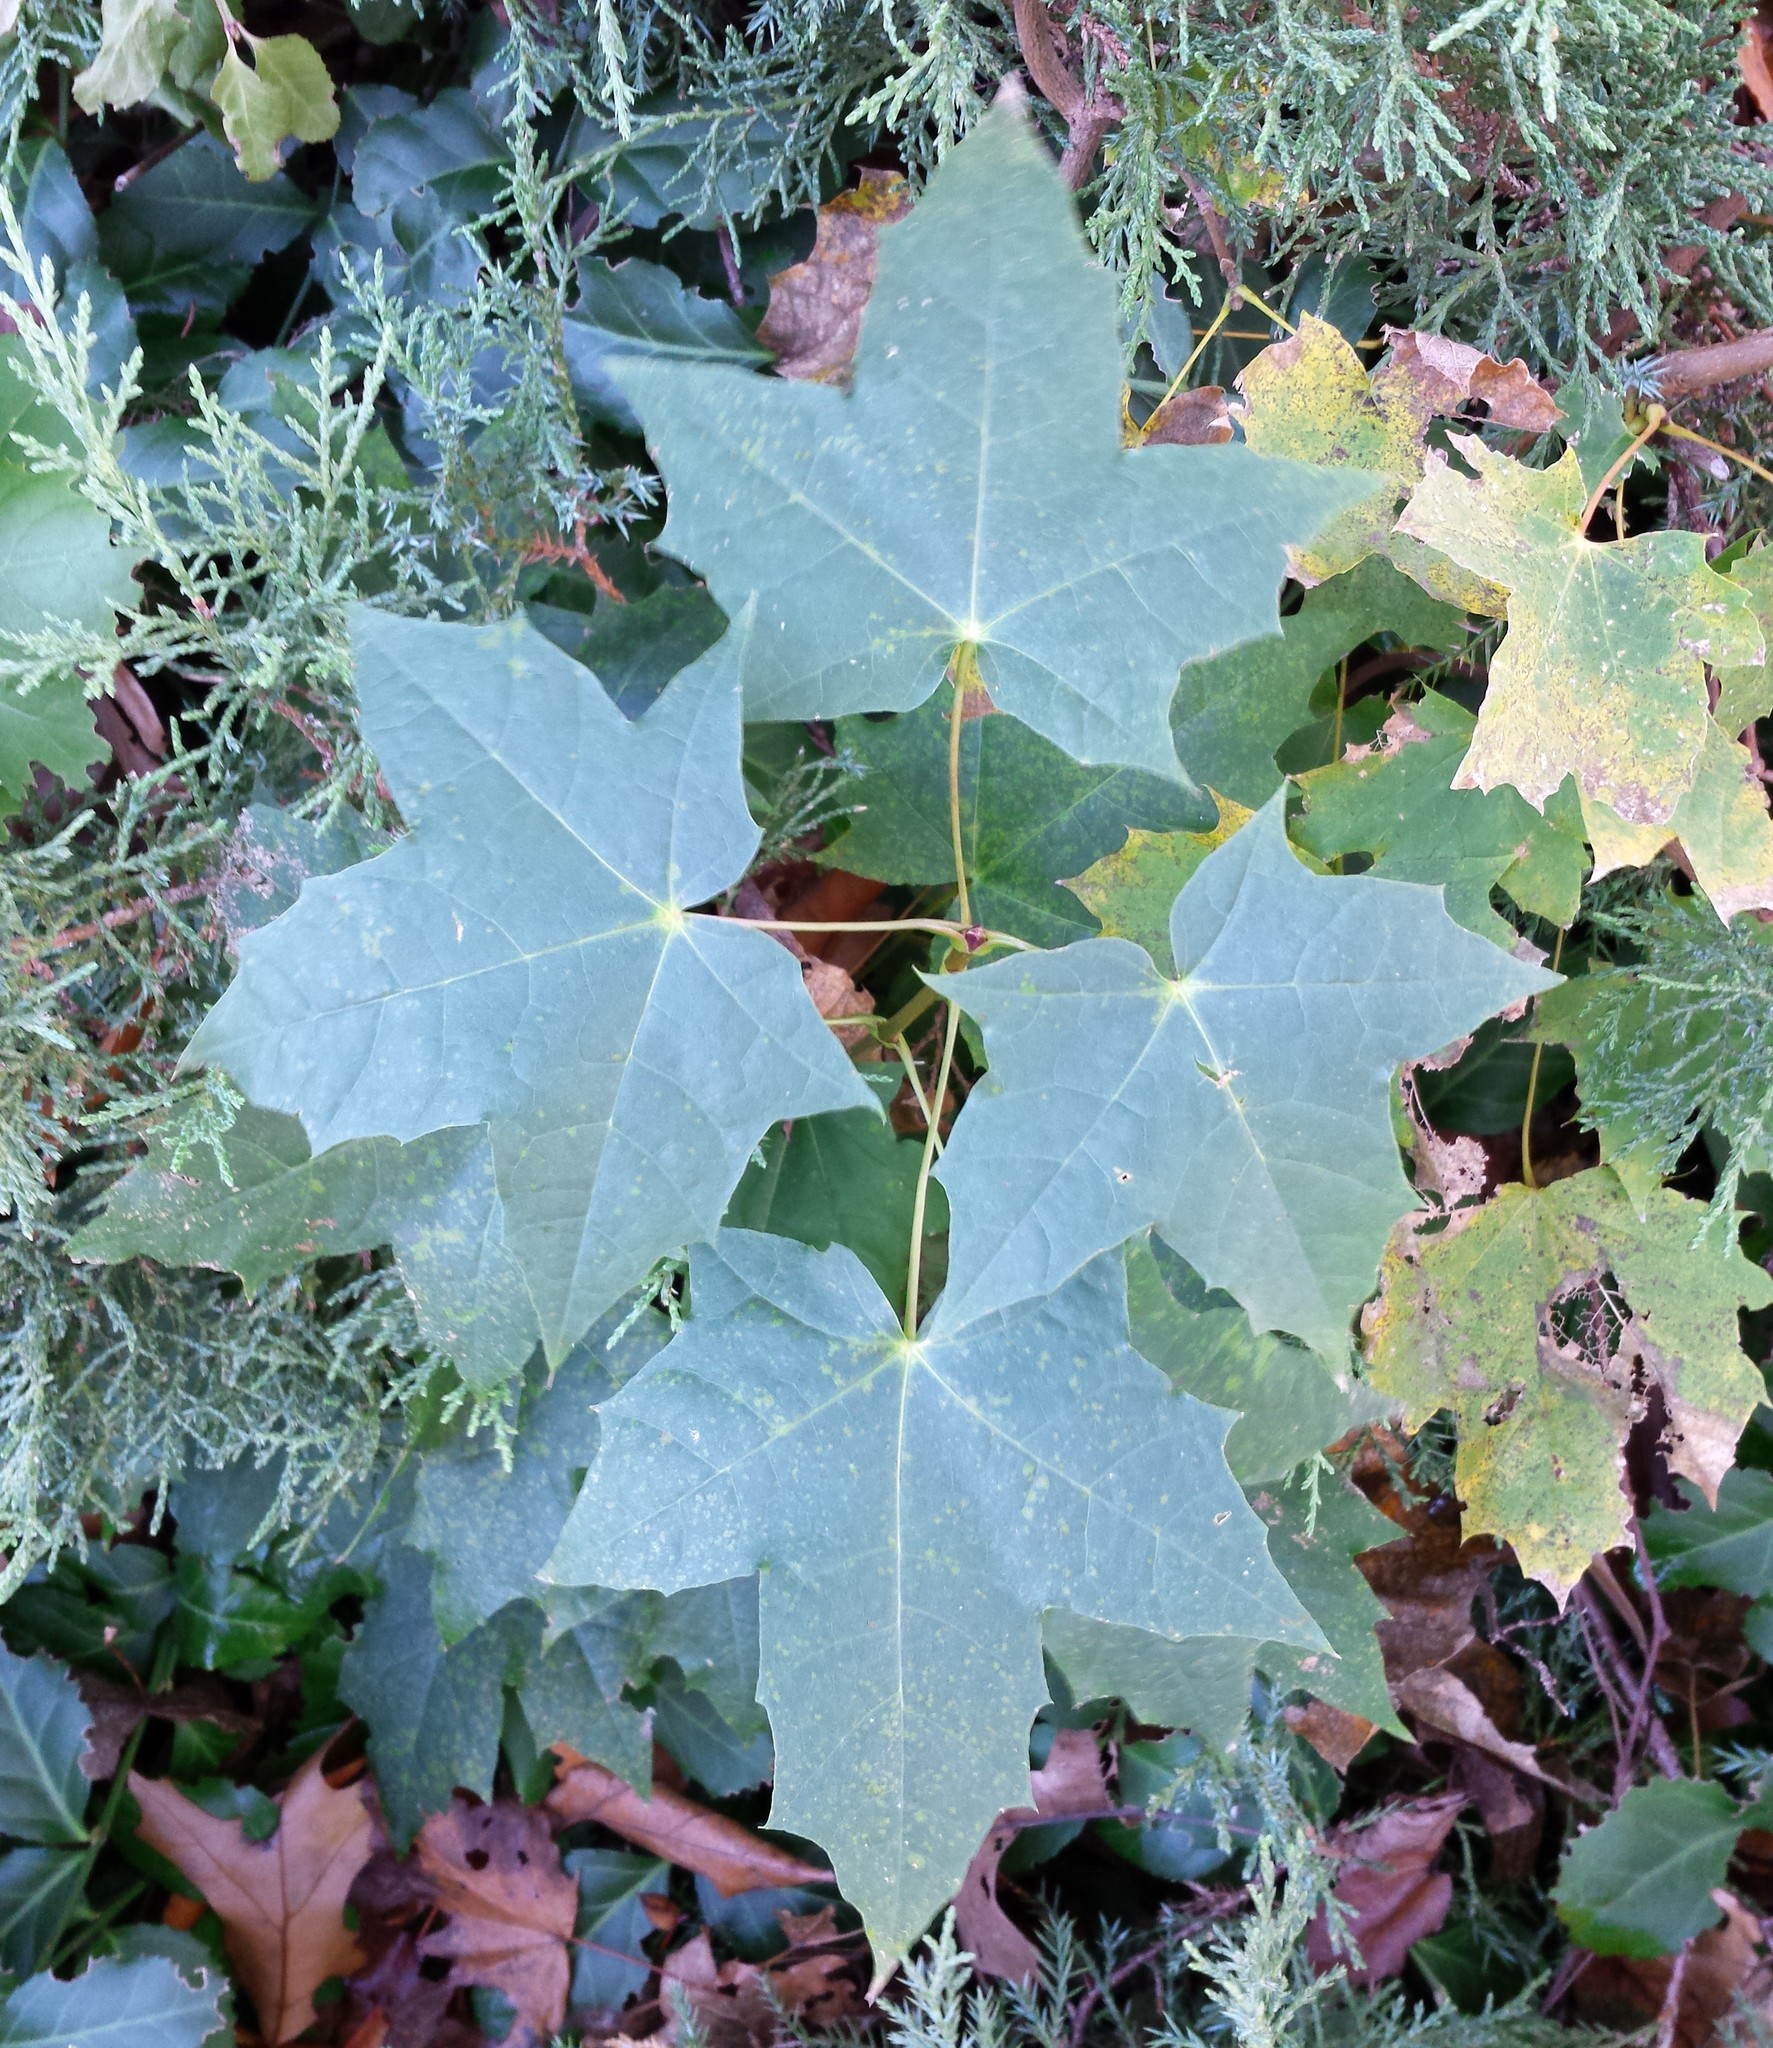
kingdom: Plantae
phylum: Tracheophyta
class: Magnoliopsida
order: Sapindales
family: Sapindaceae
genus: Acer
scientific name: Acer platanoides
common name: Norway maple
